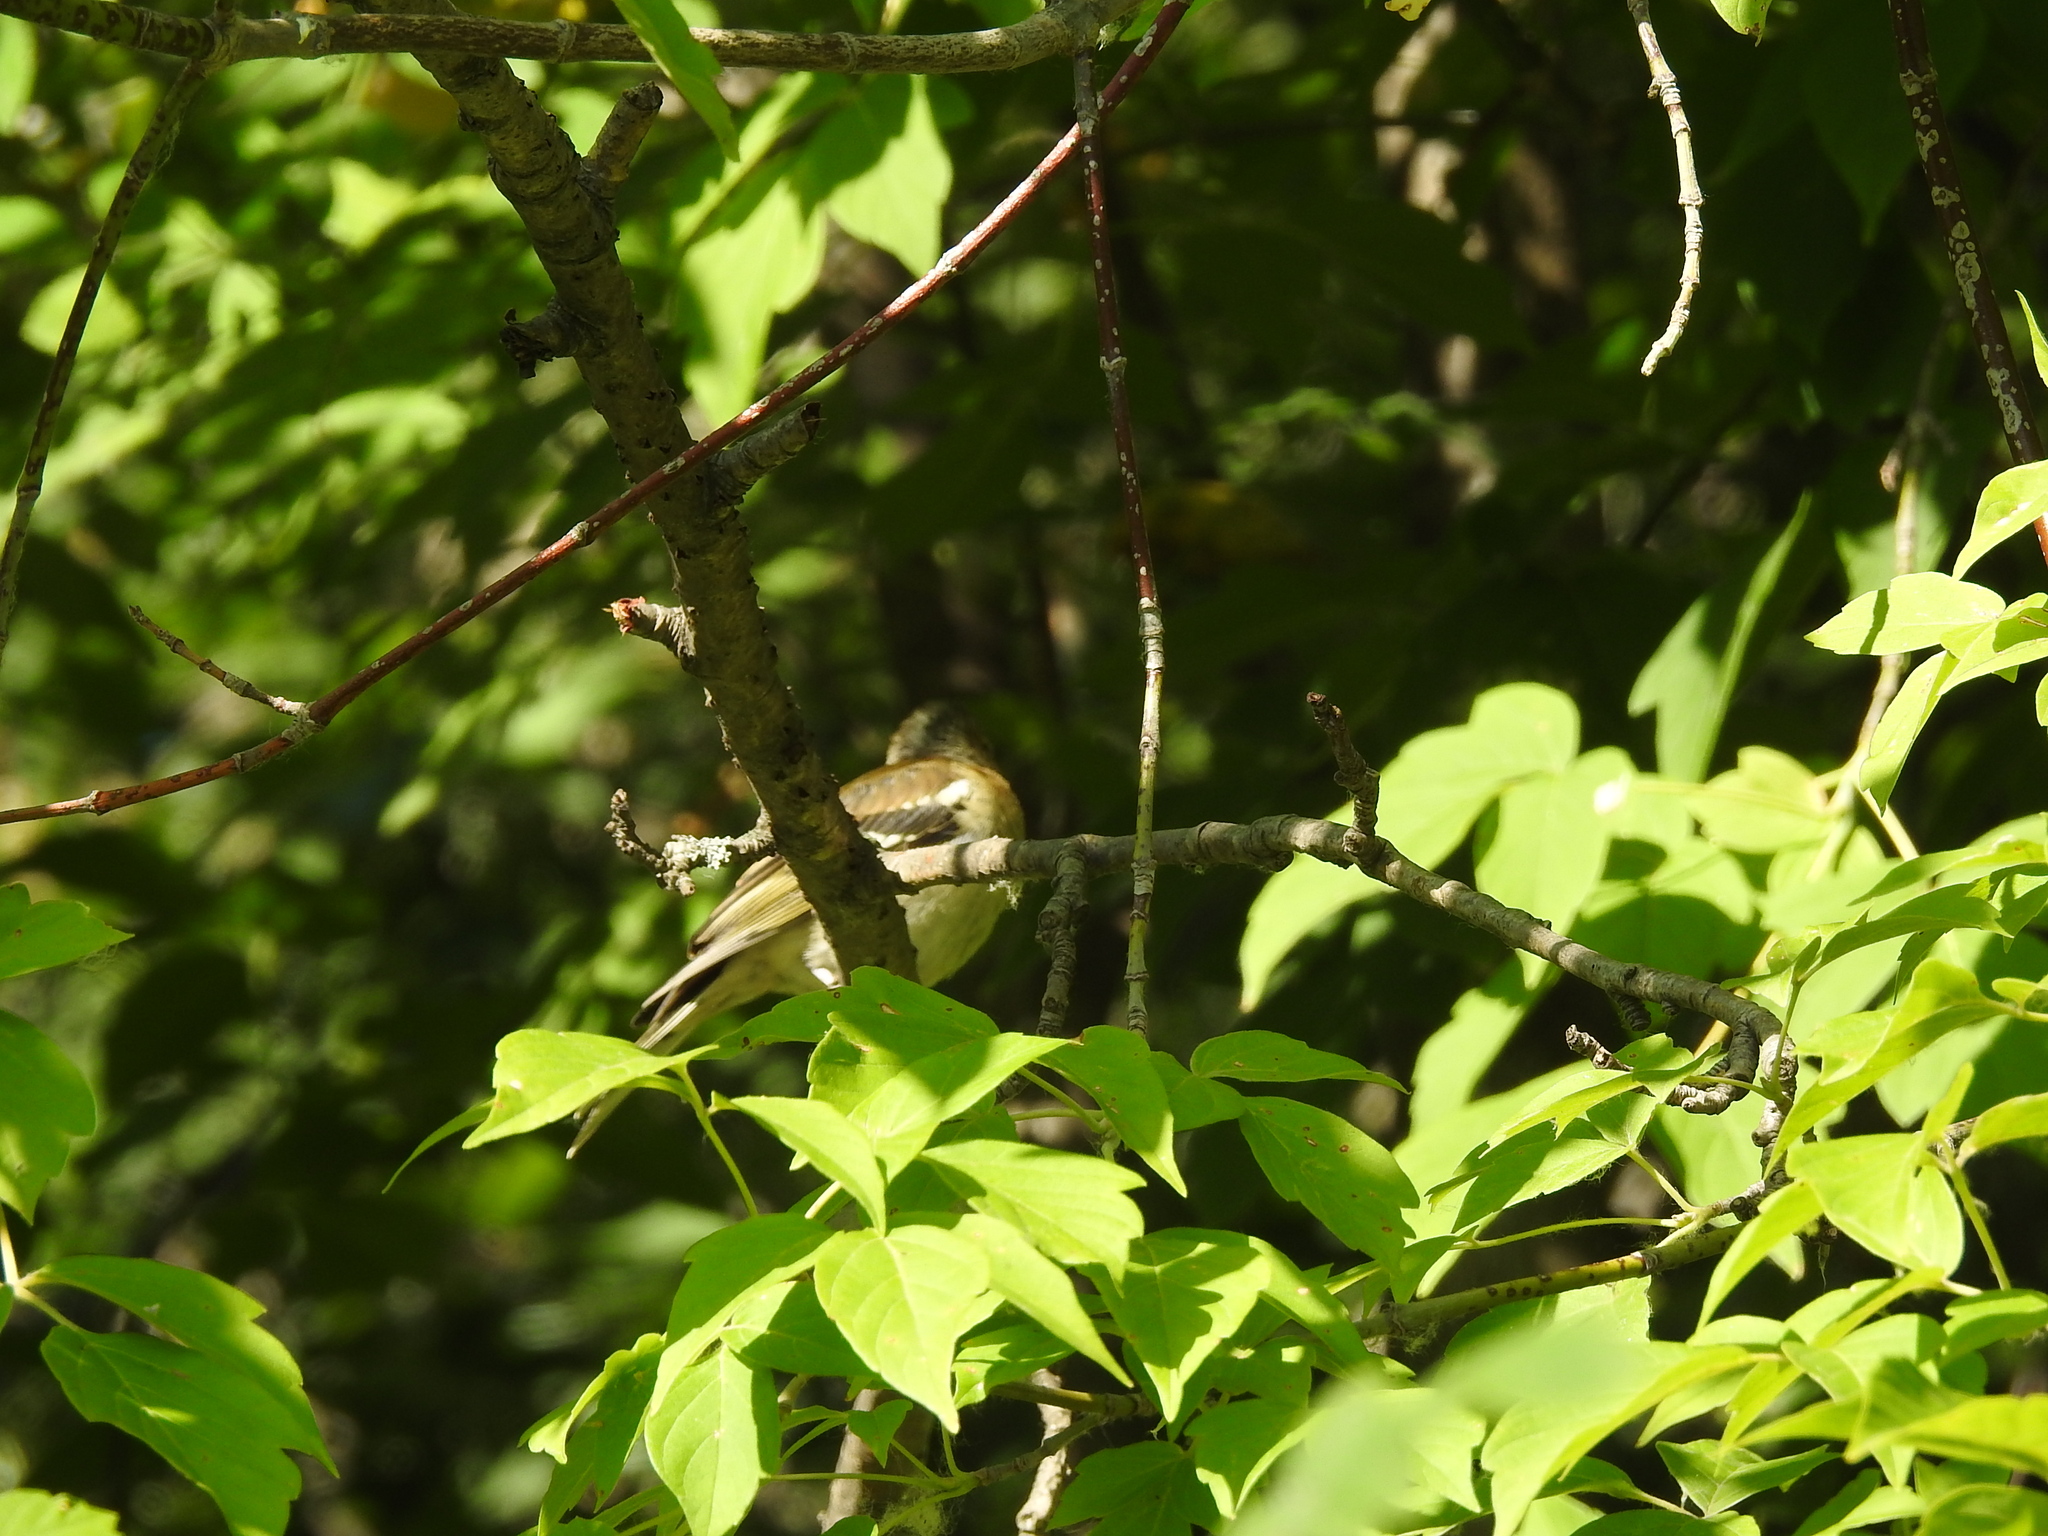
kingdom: Animalia
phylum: Chordata
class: Aves
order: Passeriformes
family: Fringillidae
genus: Fringilla
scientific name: Fringilla coelebs
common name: Common chaffinch
